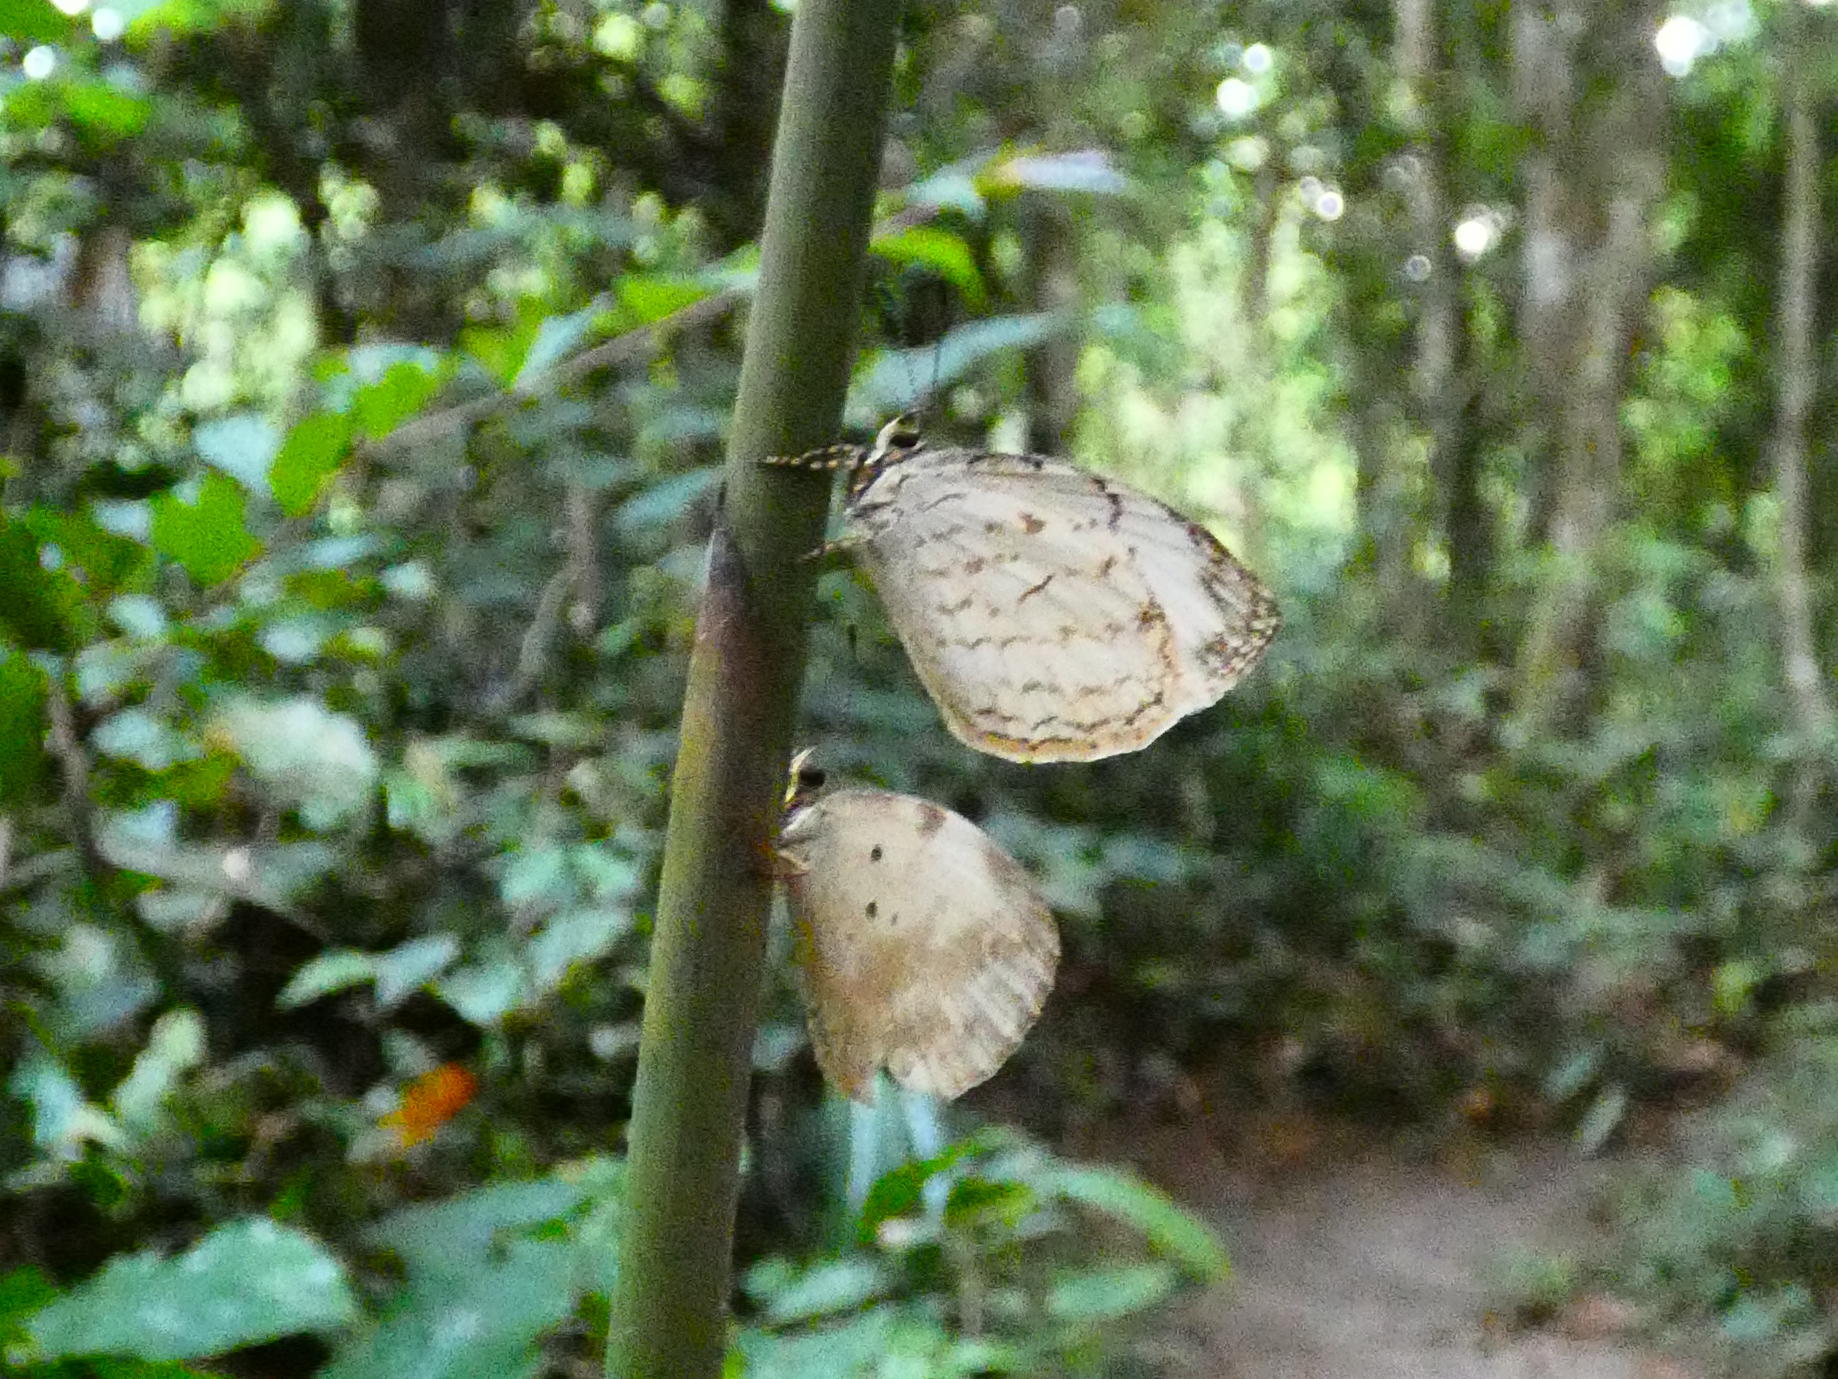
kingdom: Animalia
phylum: Arthropoda
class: Insecta
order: Lepidoptera
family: Lycaenidae
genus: Liptena
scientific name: Liptena undularis
